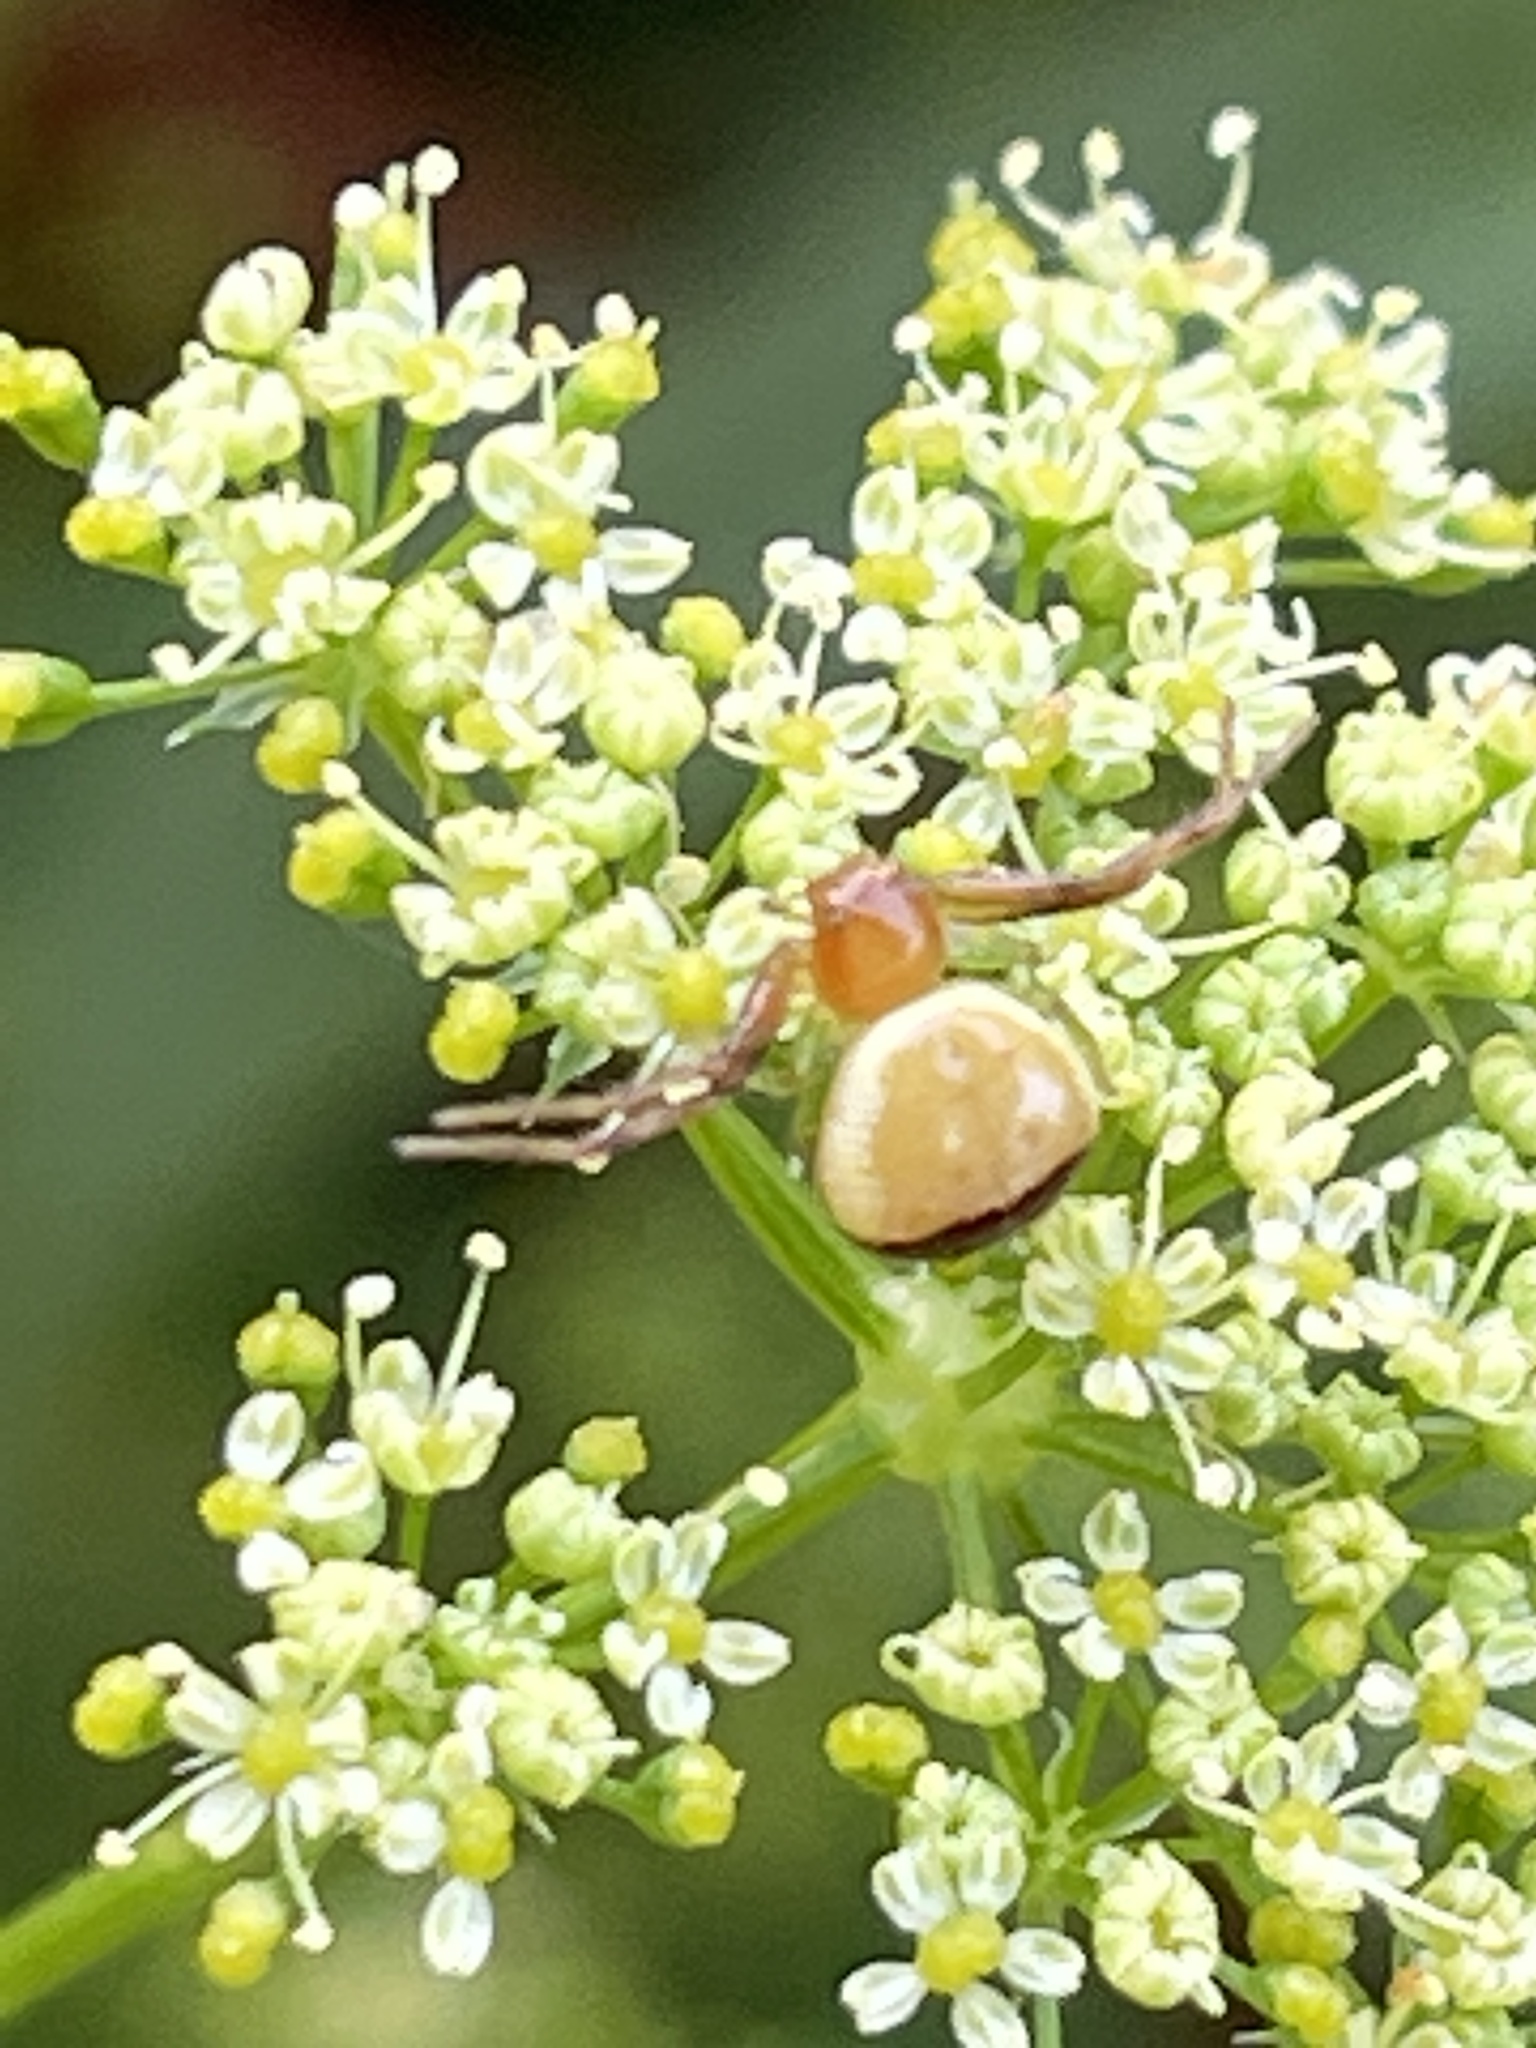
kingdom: Animalia
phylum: Arthropoda
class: Arachnida
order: Araneae
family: Thomisidae
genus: Synema
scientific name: Synema parvulum
